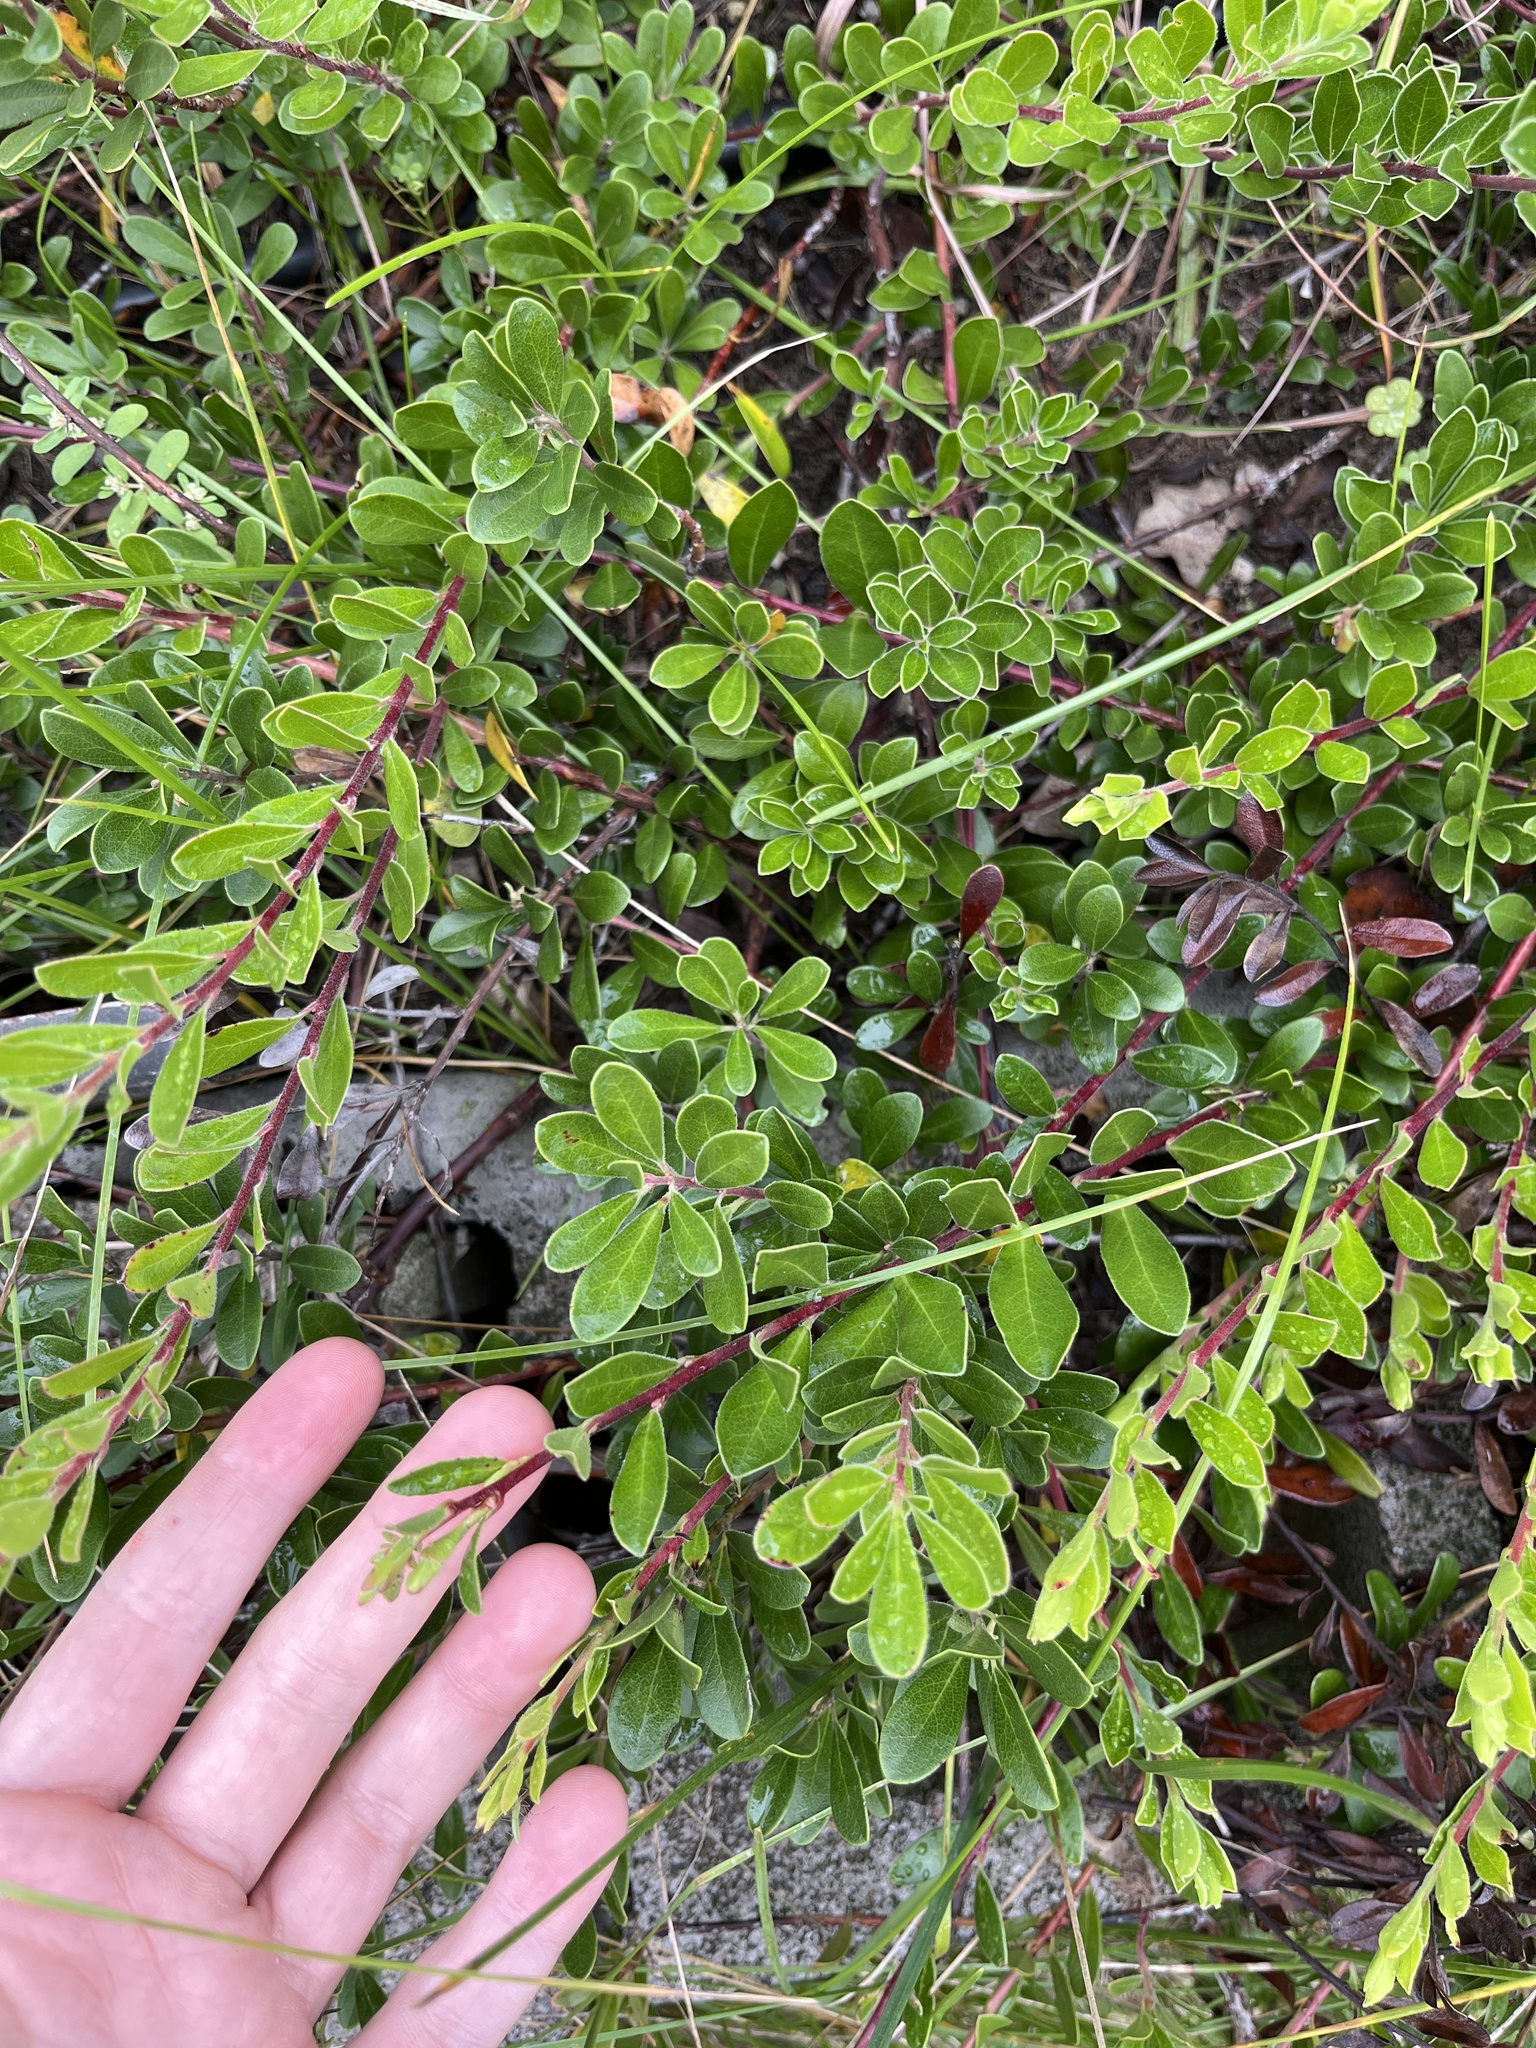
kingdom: Plantae
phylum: Tracheophyta
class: Magnoliopsida
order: Ericales
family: Ericaceae
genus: Arctostaphylos
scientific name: Arctostaphylos uva-ursi
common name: Bearberry
